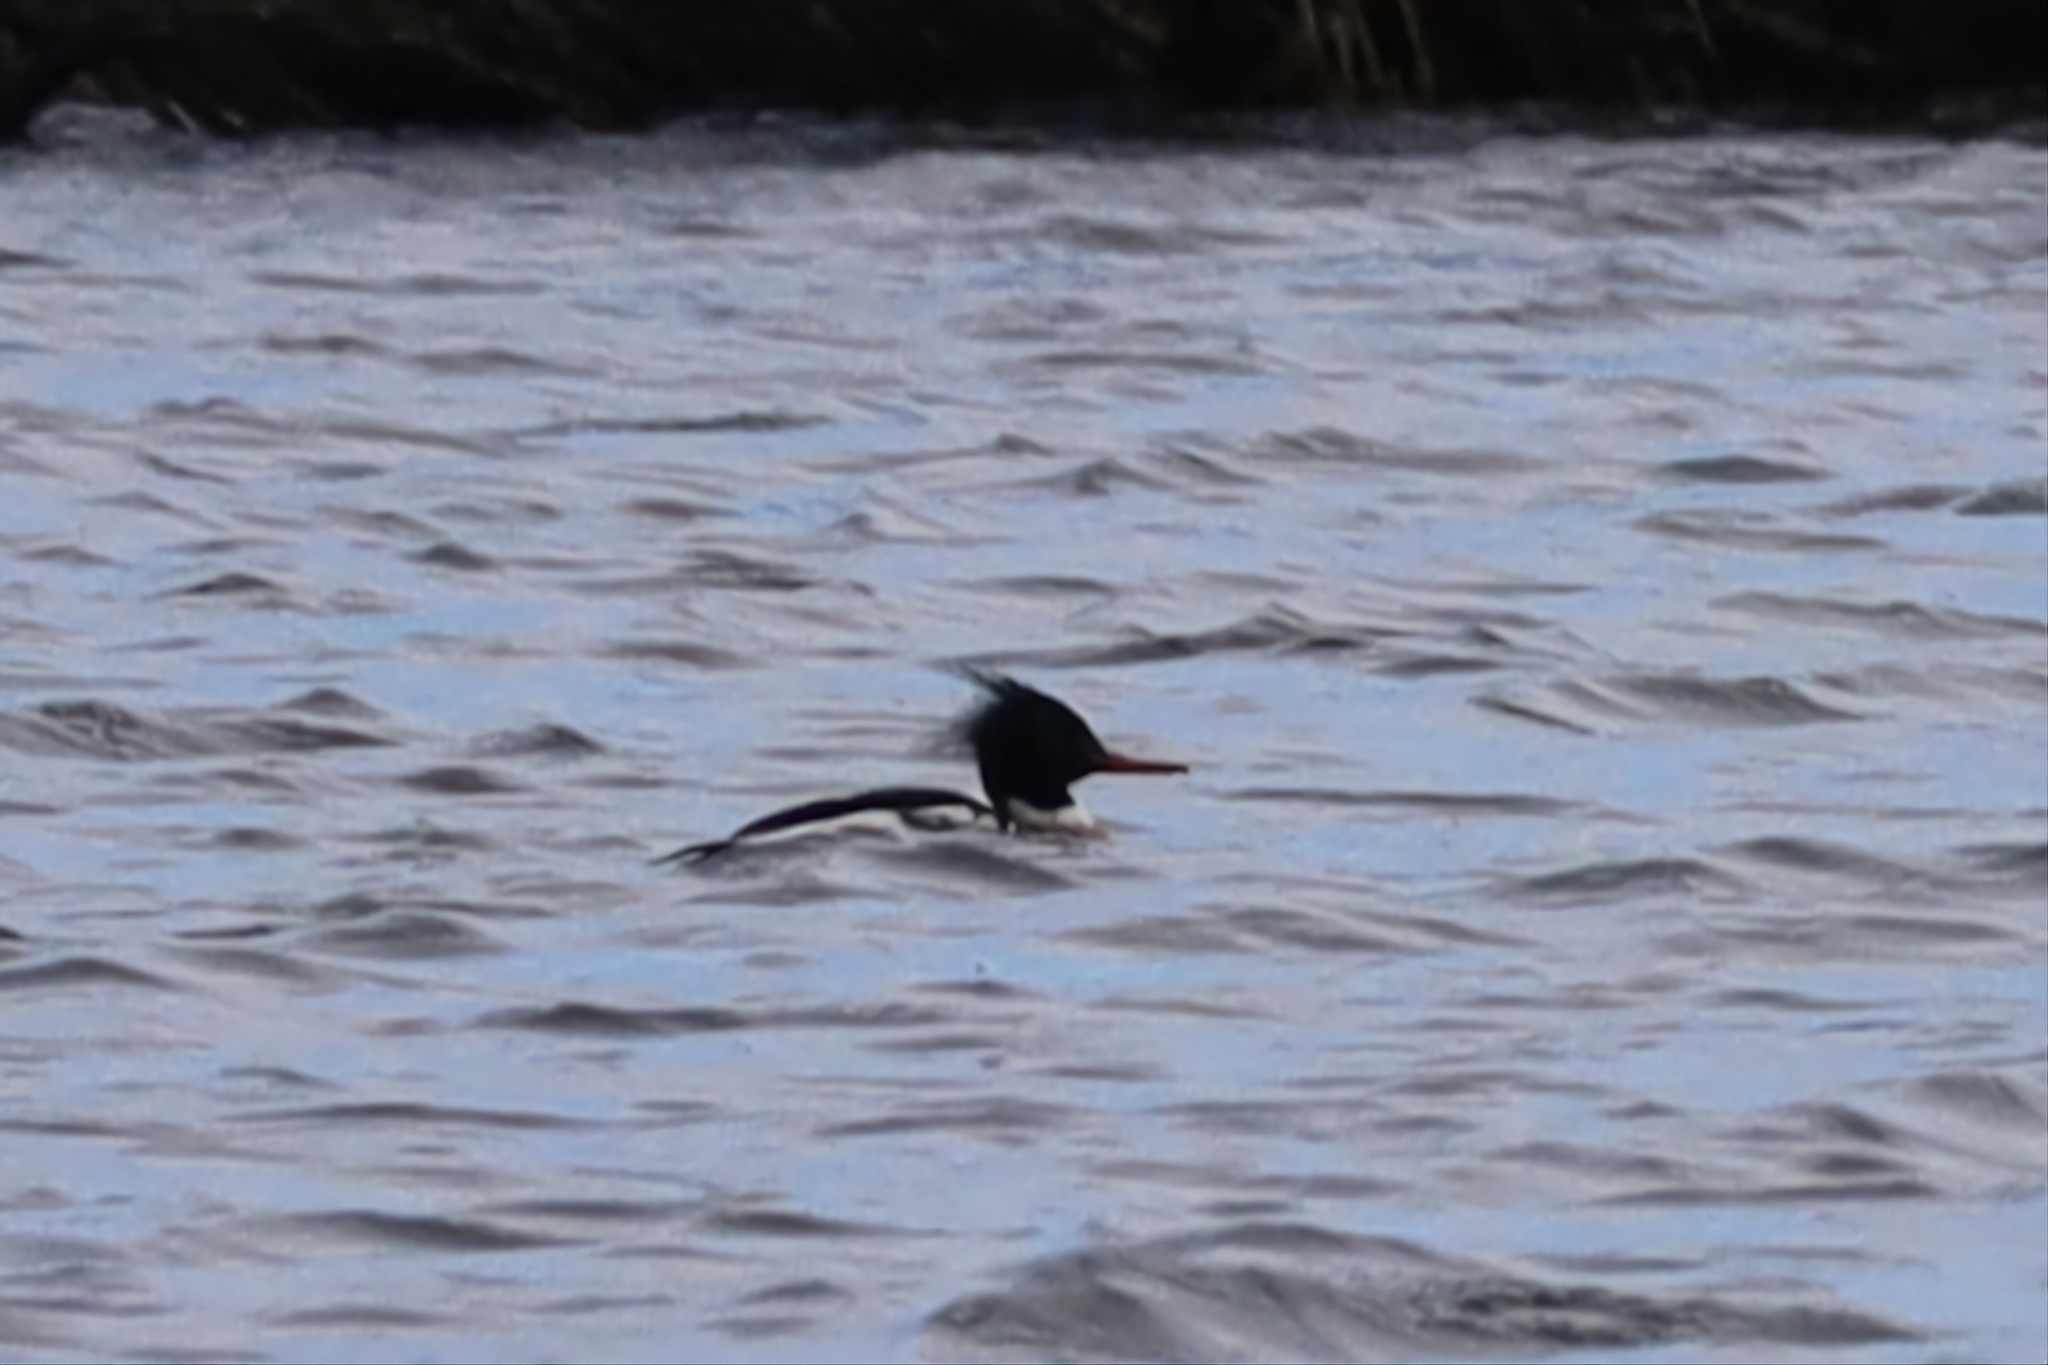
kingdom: Animalia
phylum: Chordata
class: Aves
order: Anseriformes
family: Anatidae
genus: Mergus
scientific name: Mergus serrator
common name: Red-breasted merganser
